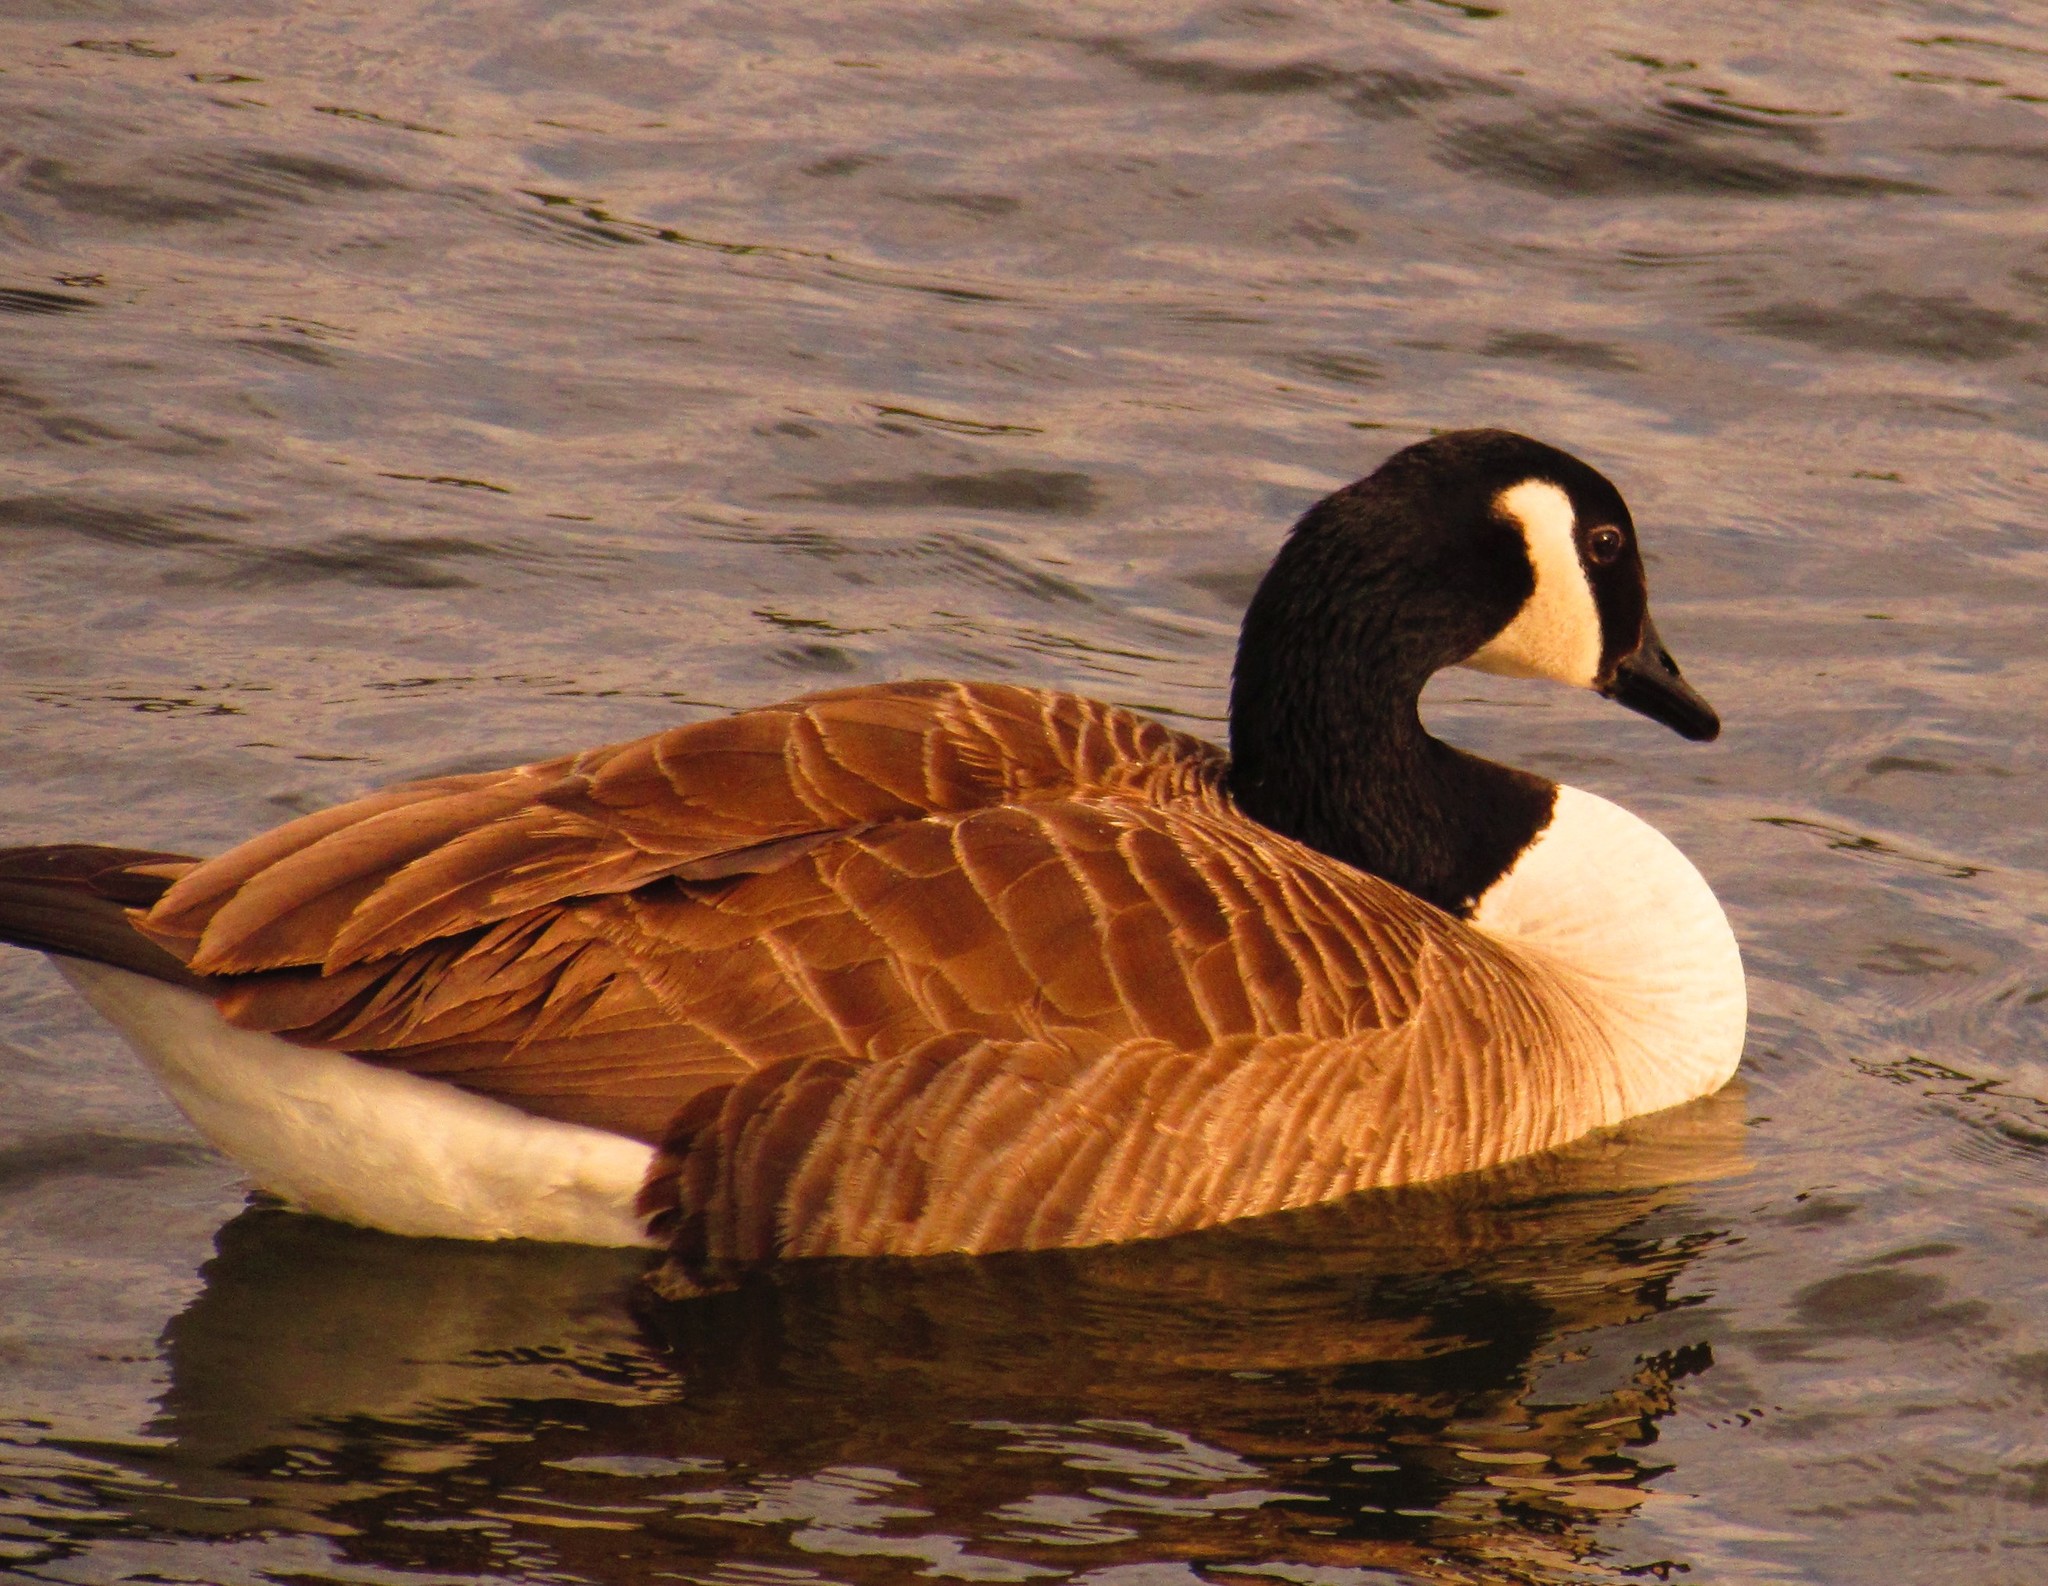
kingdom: Animalia
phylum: Chordata
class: Aves
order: Anseriformes
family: Anatidae
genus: Branta
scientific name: Branta canadensis
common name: Canada goose
